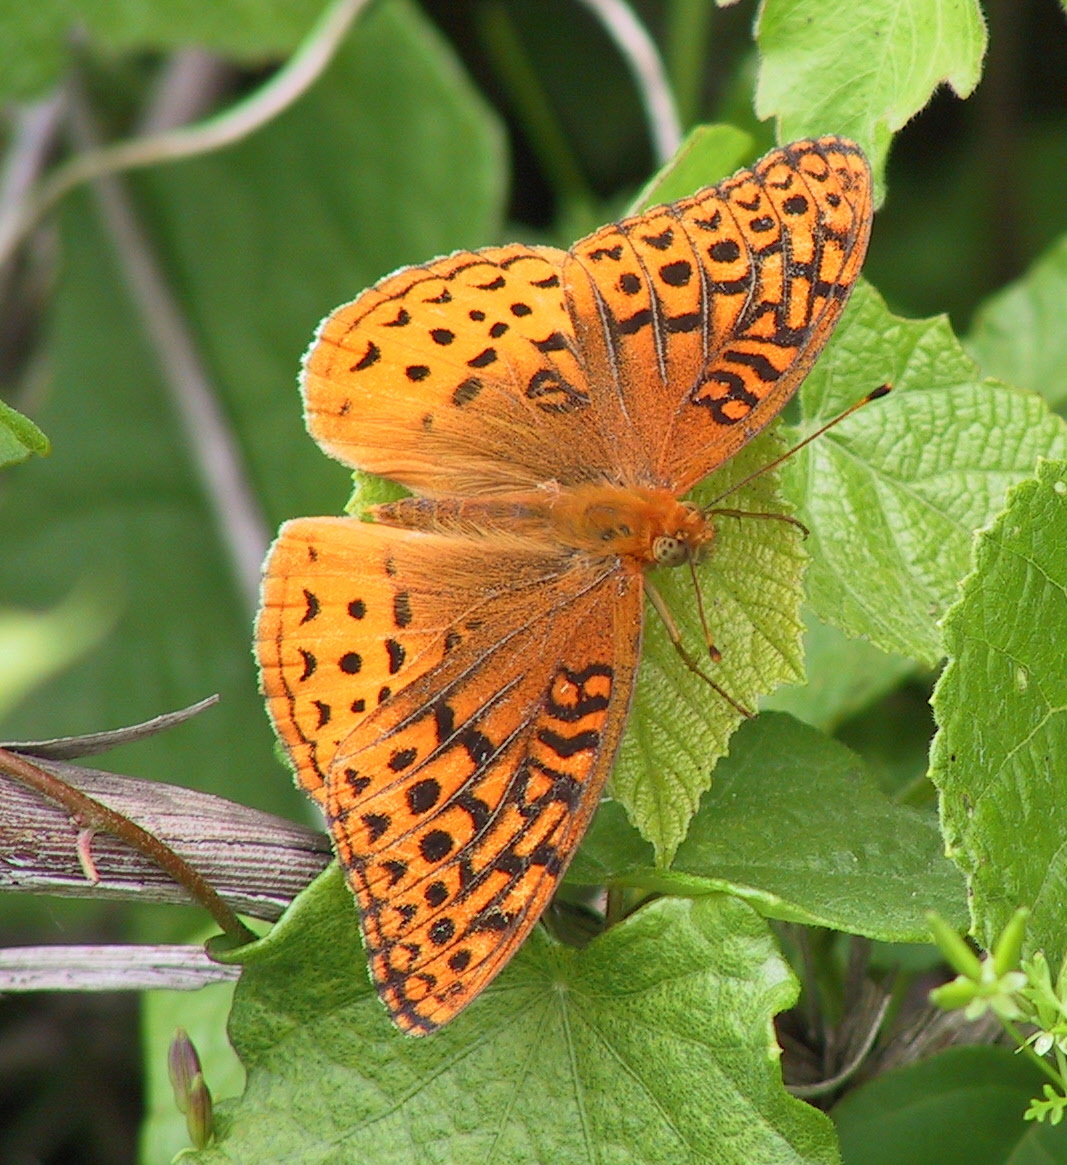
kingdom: Animalia
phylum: Arthropoda
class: Insecta
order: Lepidoptera
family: Nymphalidae
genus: Speyeria
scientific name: Speyeria cybele
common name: Great spangled fritillary
